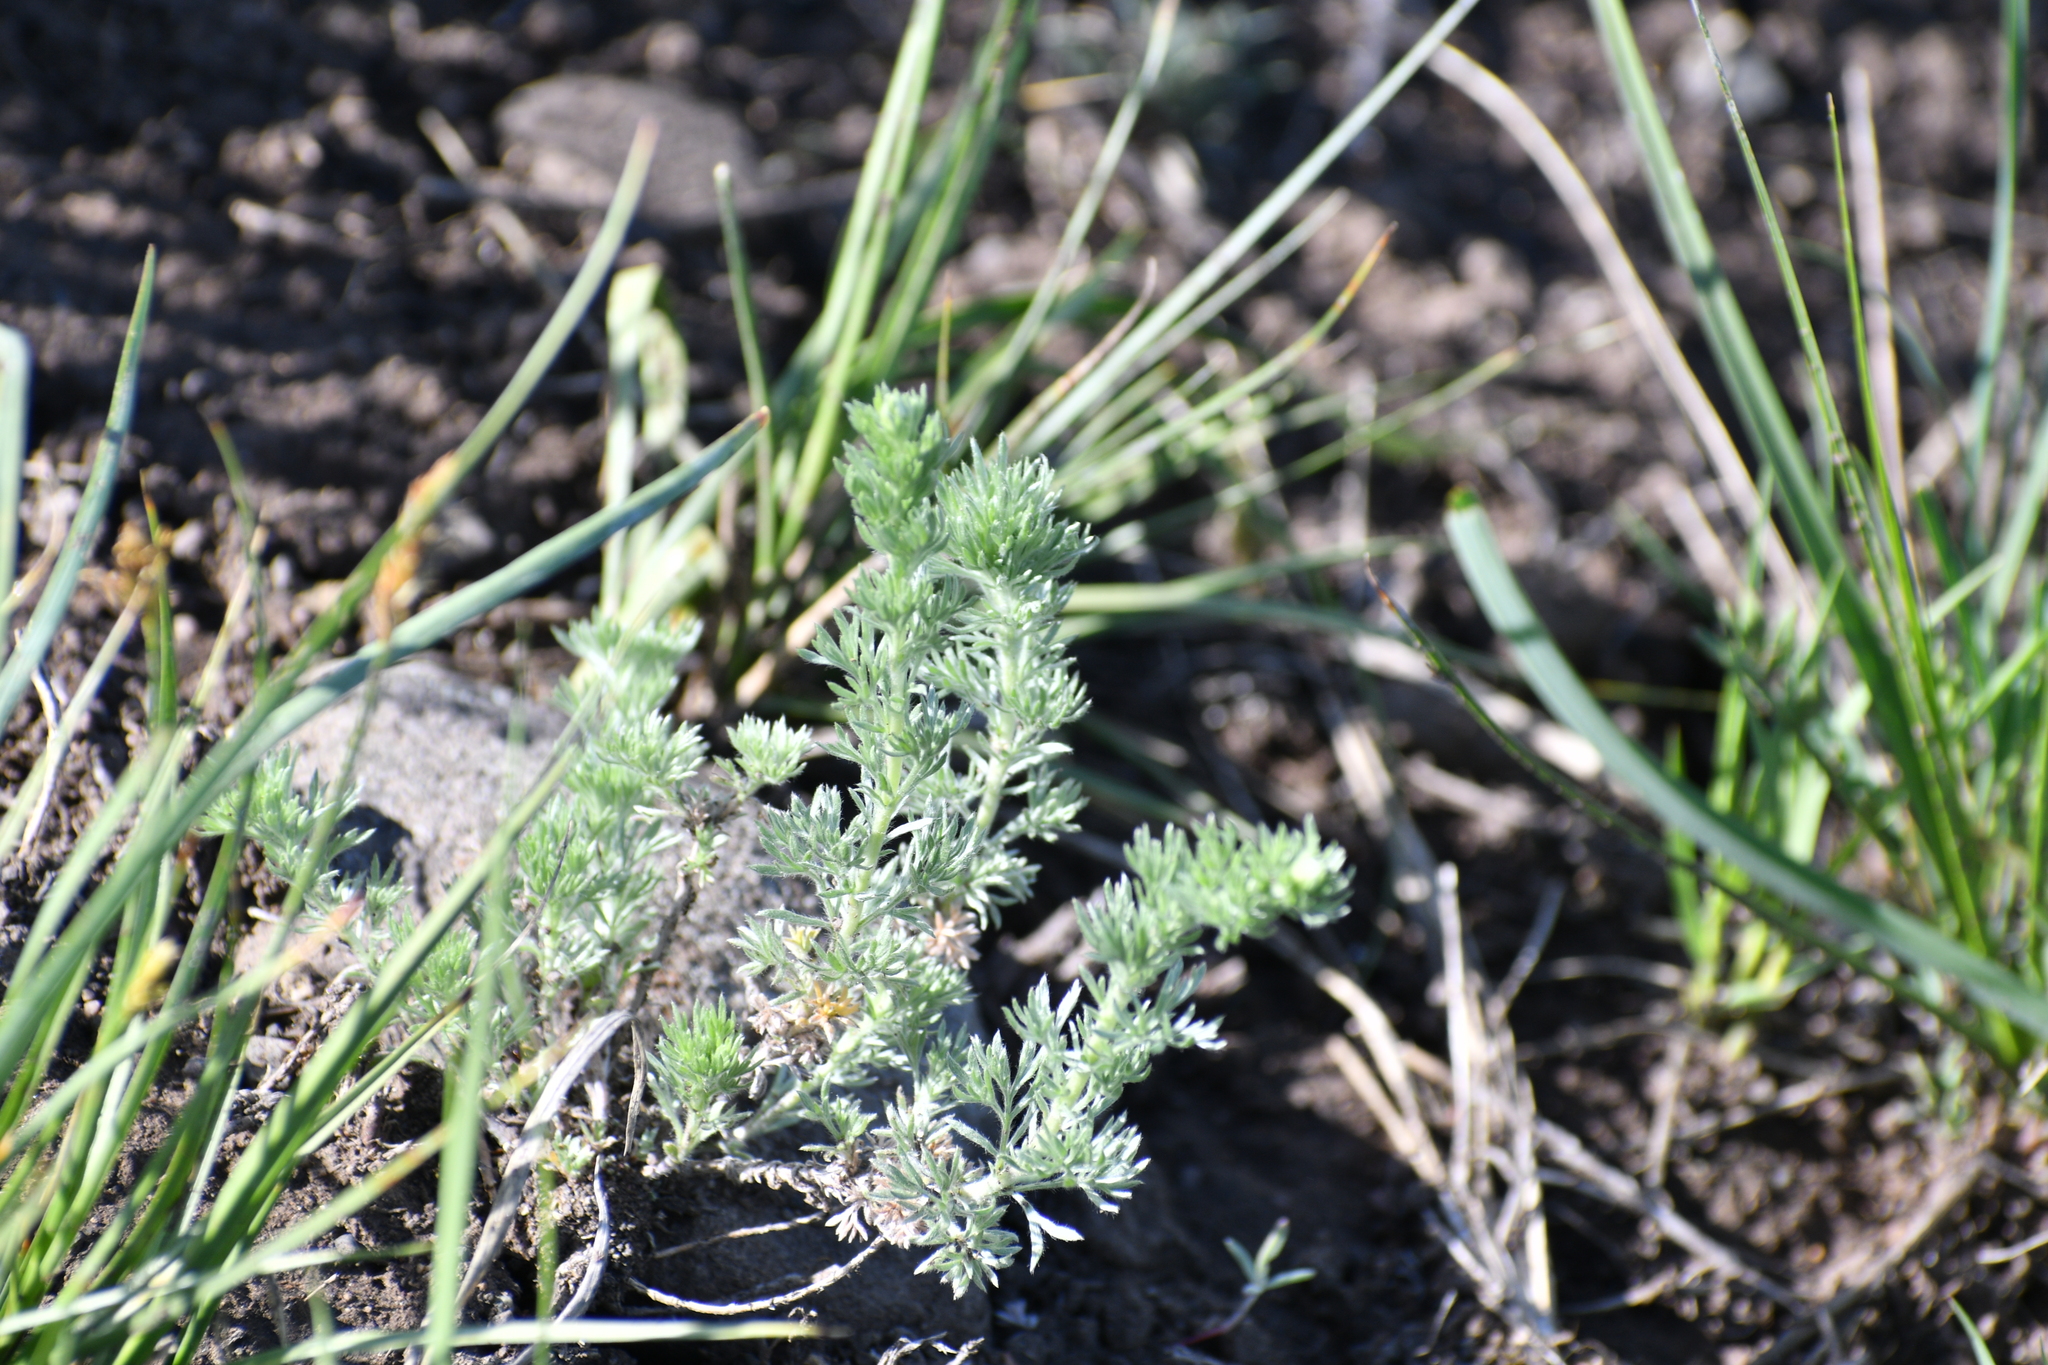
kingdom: Plantae
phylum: Tracheophyta
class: Magnoliopsida
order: Asterales
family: Asteraceae
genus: Artemisia
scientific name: Artemisia frigida
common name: Prairie sagewort
